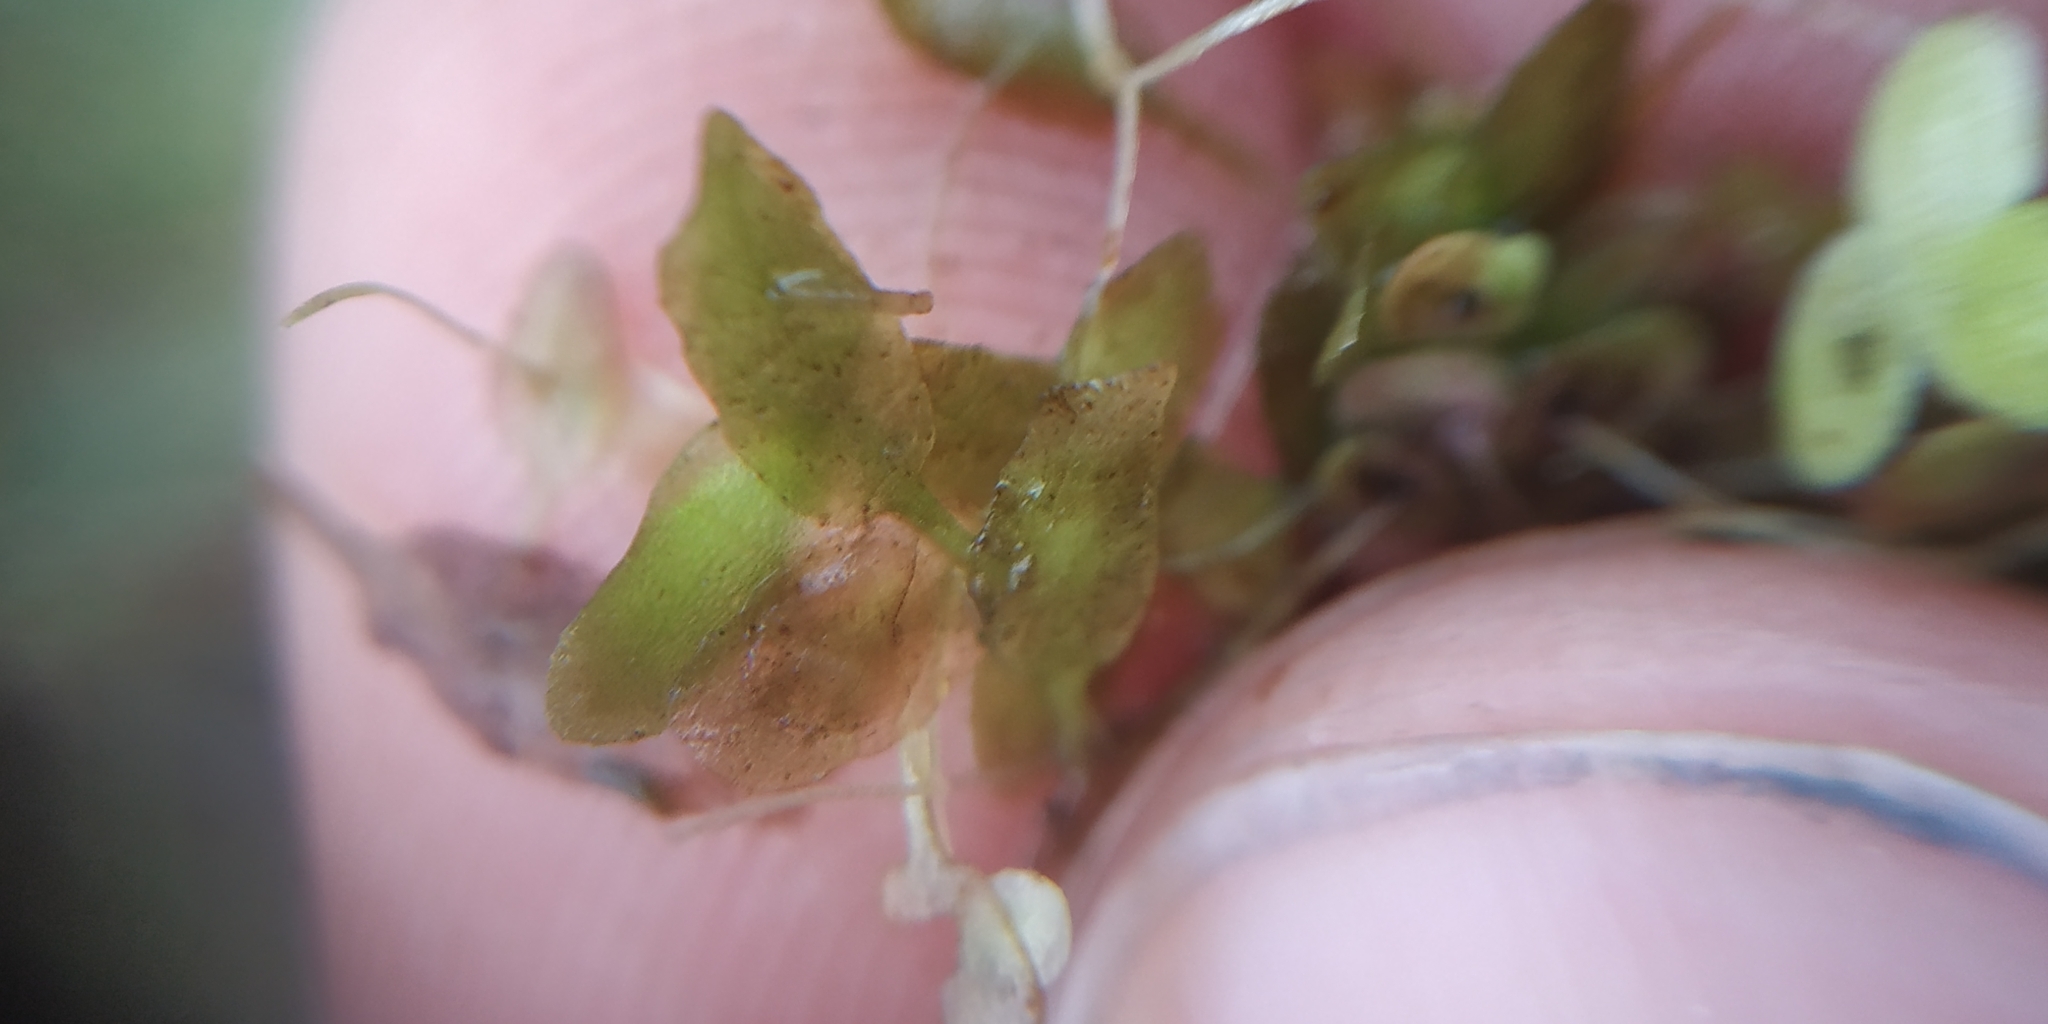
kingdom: Plantae
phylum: Tracheophyta
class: Liliopsida
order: Alismatales
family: Araceae
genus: Lemna
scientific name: Lemna trisulca
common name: Ivy-leaved duckweed
